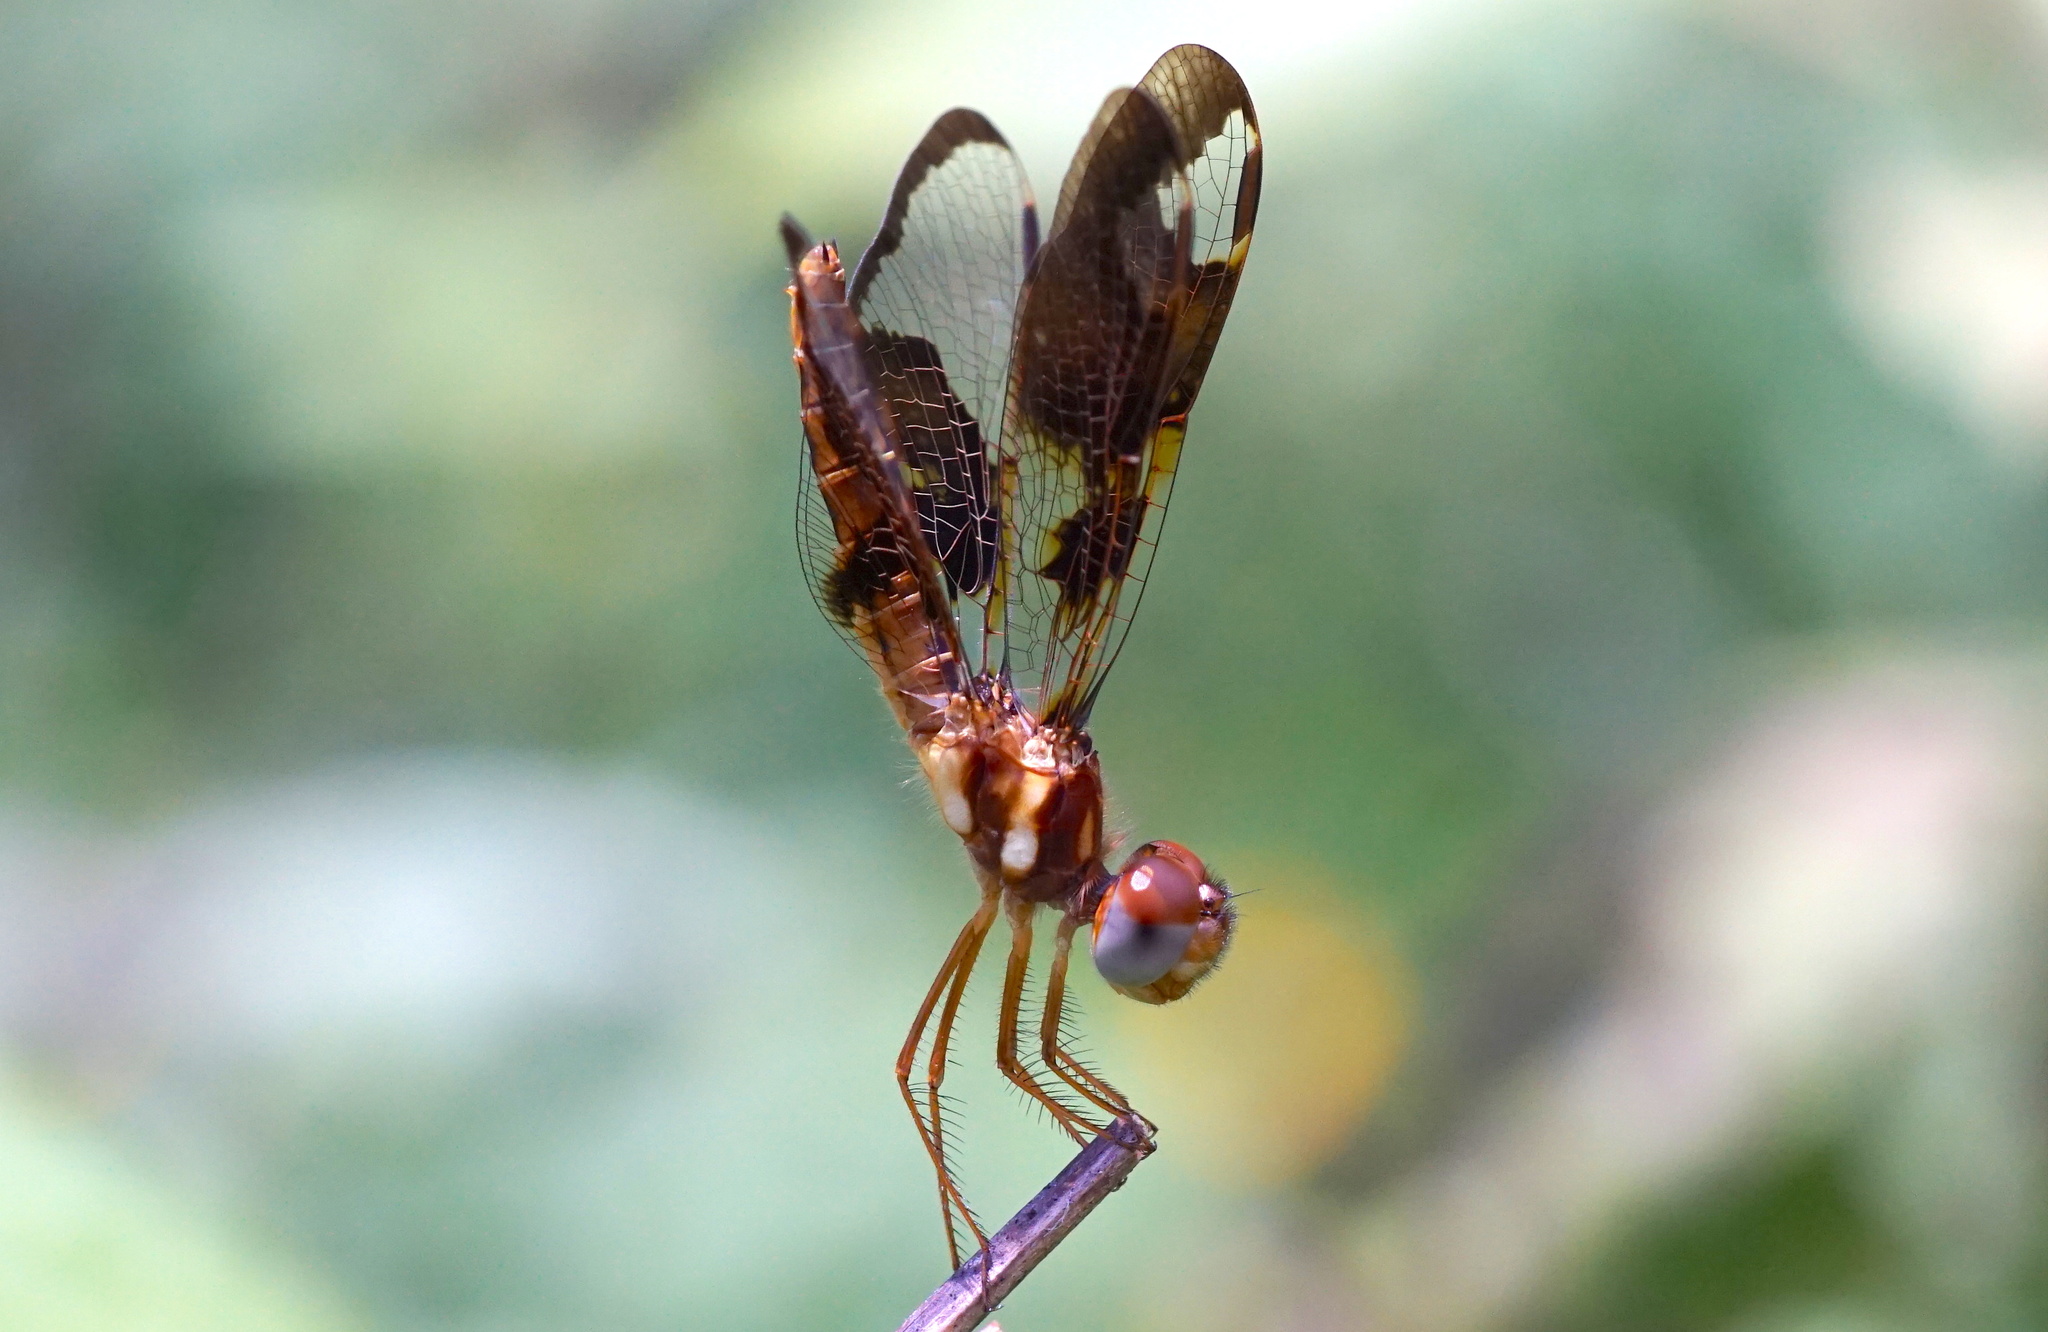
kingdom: Animalia
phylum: Arthropoda
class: Insecta
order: Odonata
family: Libellulidae
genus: Perithemis
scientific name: Perithemis tenera
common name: Eastern amberwing
